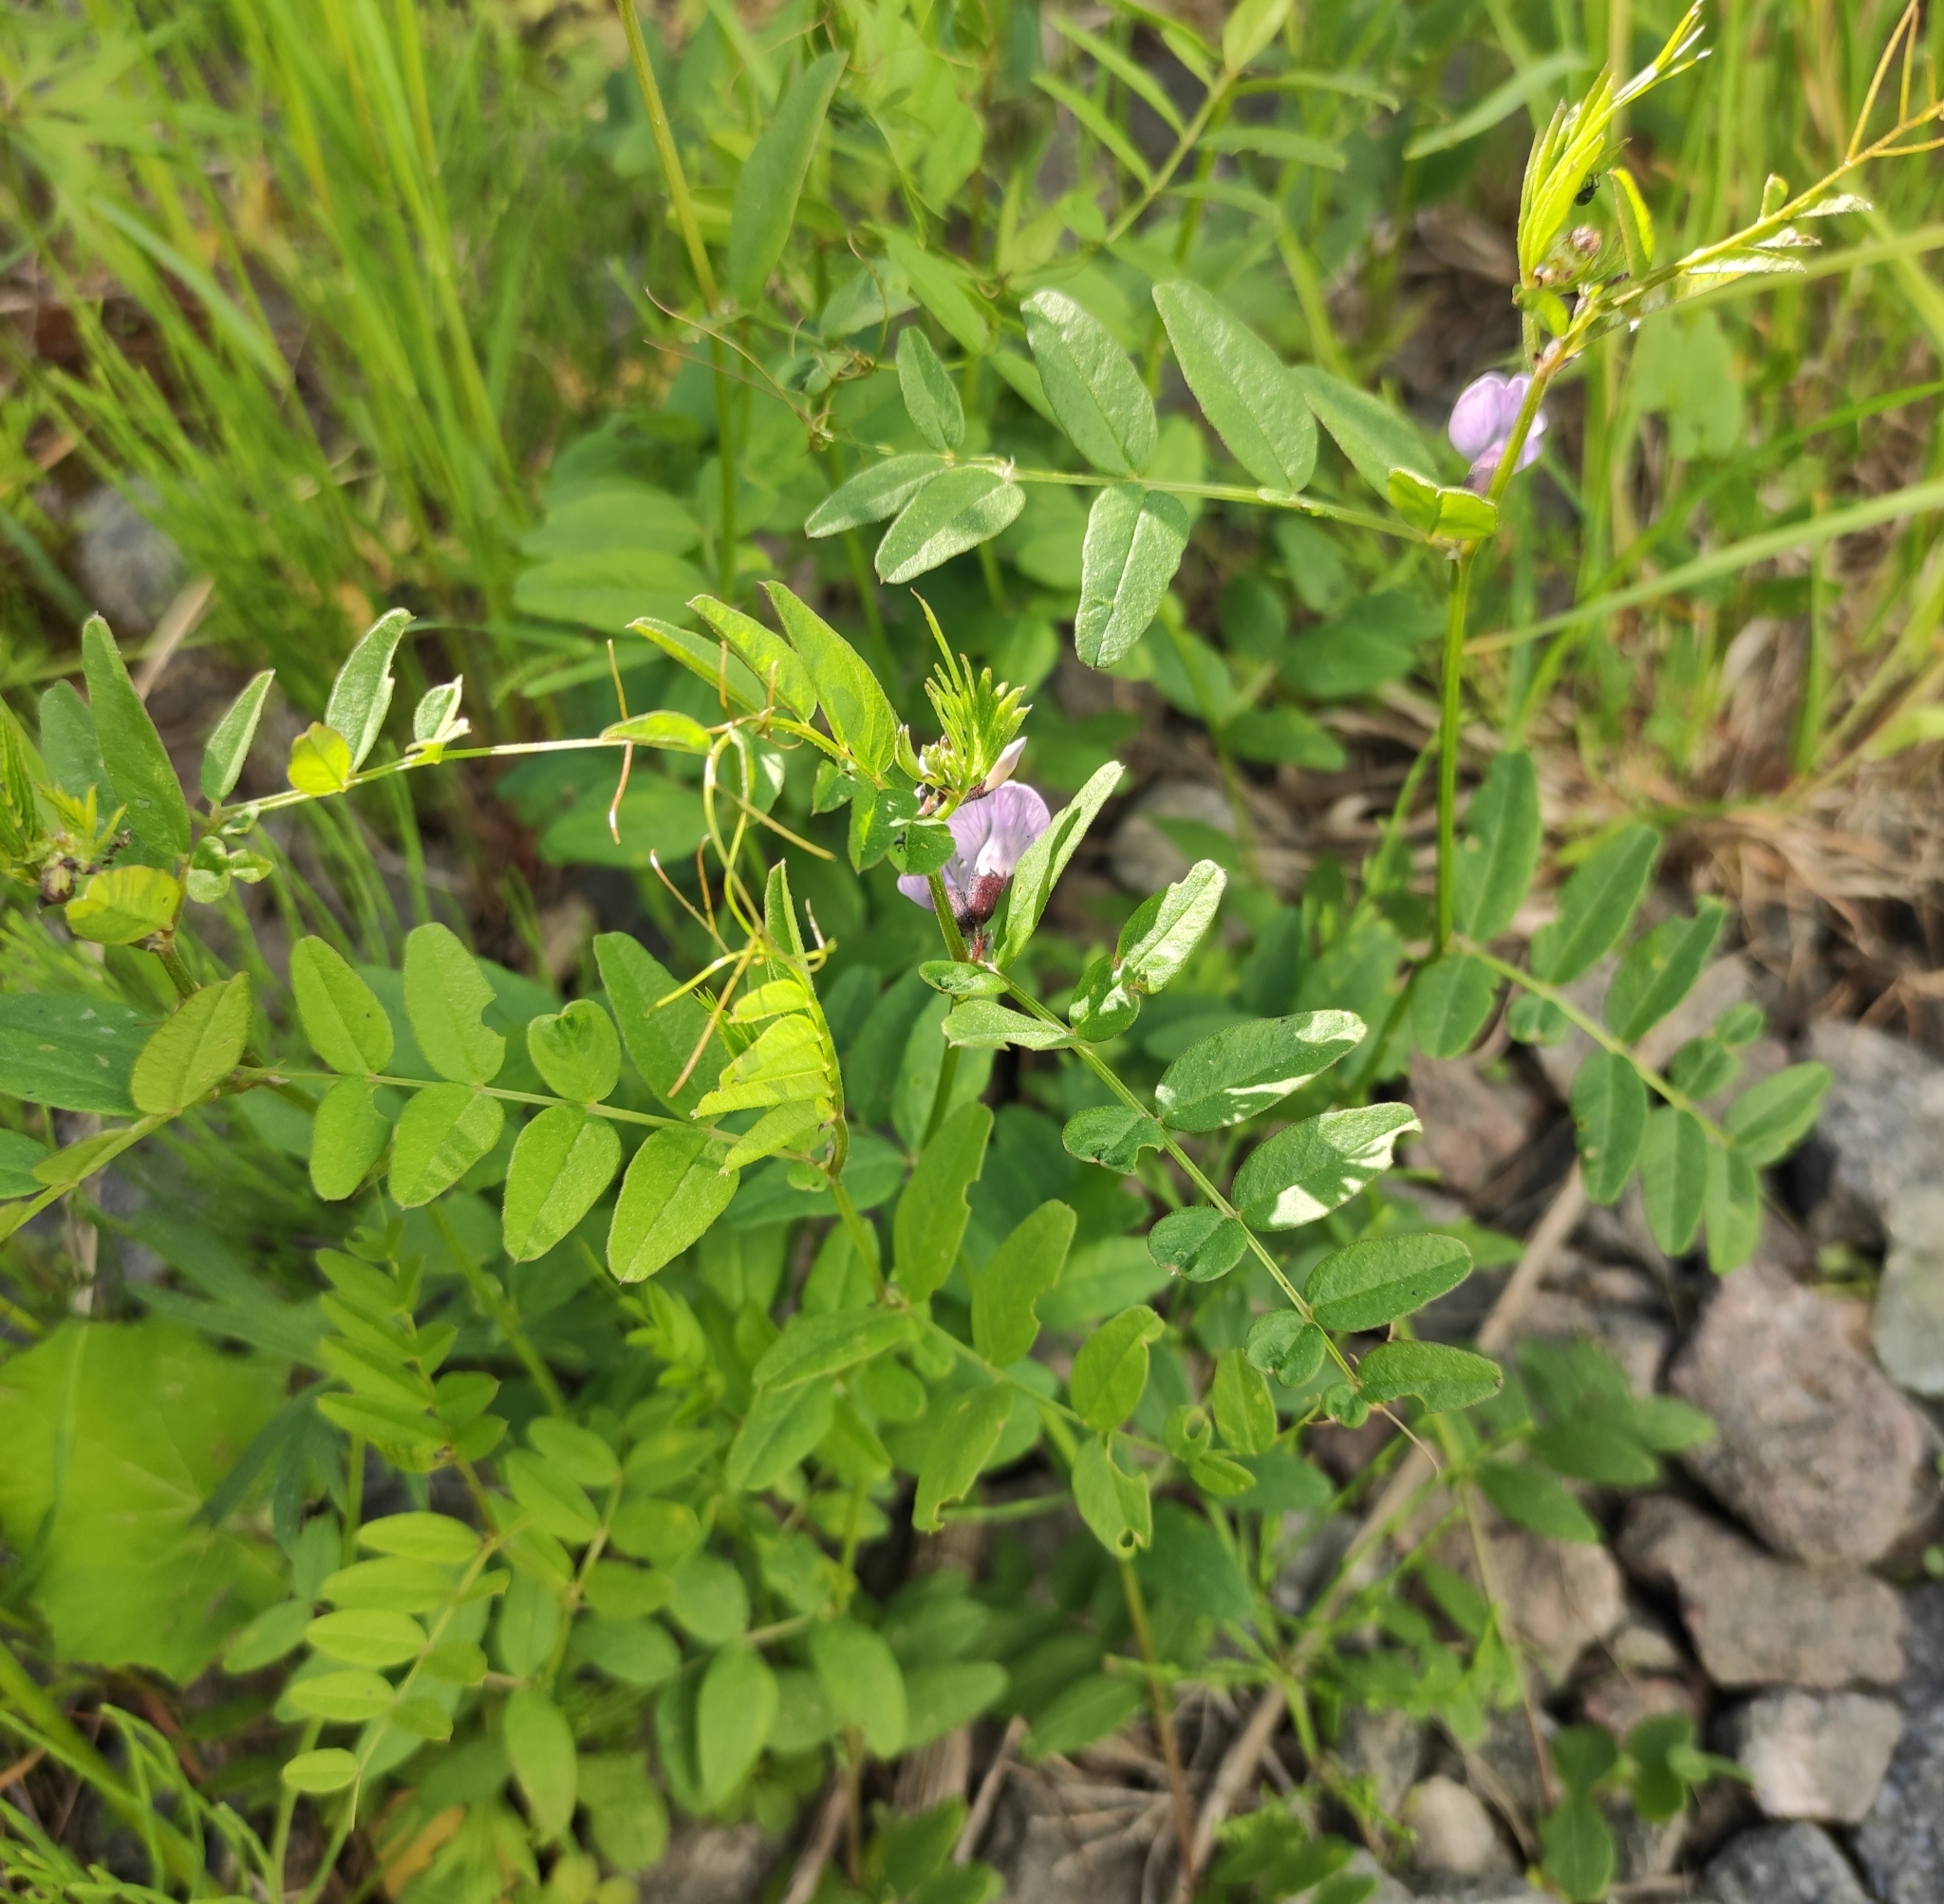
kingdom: Plantae
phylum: Tracheophyta
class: Magnoliopsida
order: Fabales
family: Fabaceae
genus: Vicia
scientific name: Vicia sepium
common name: Bush vetch
